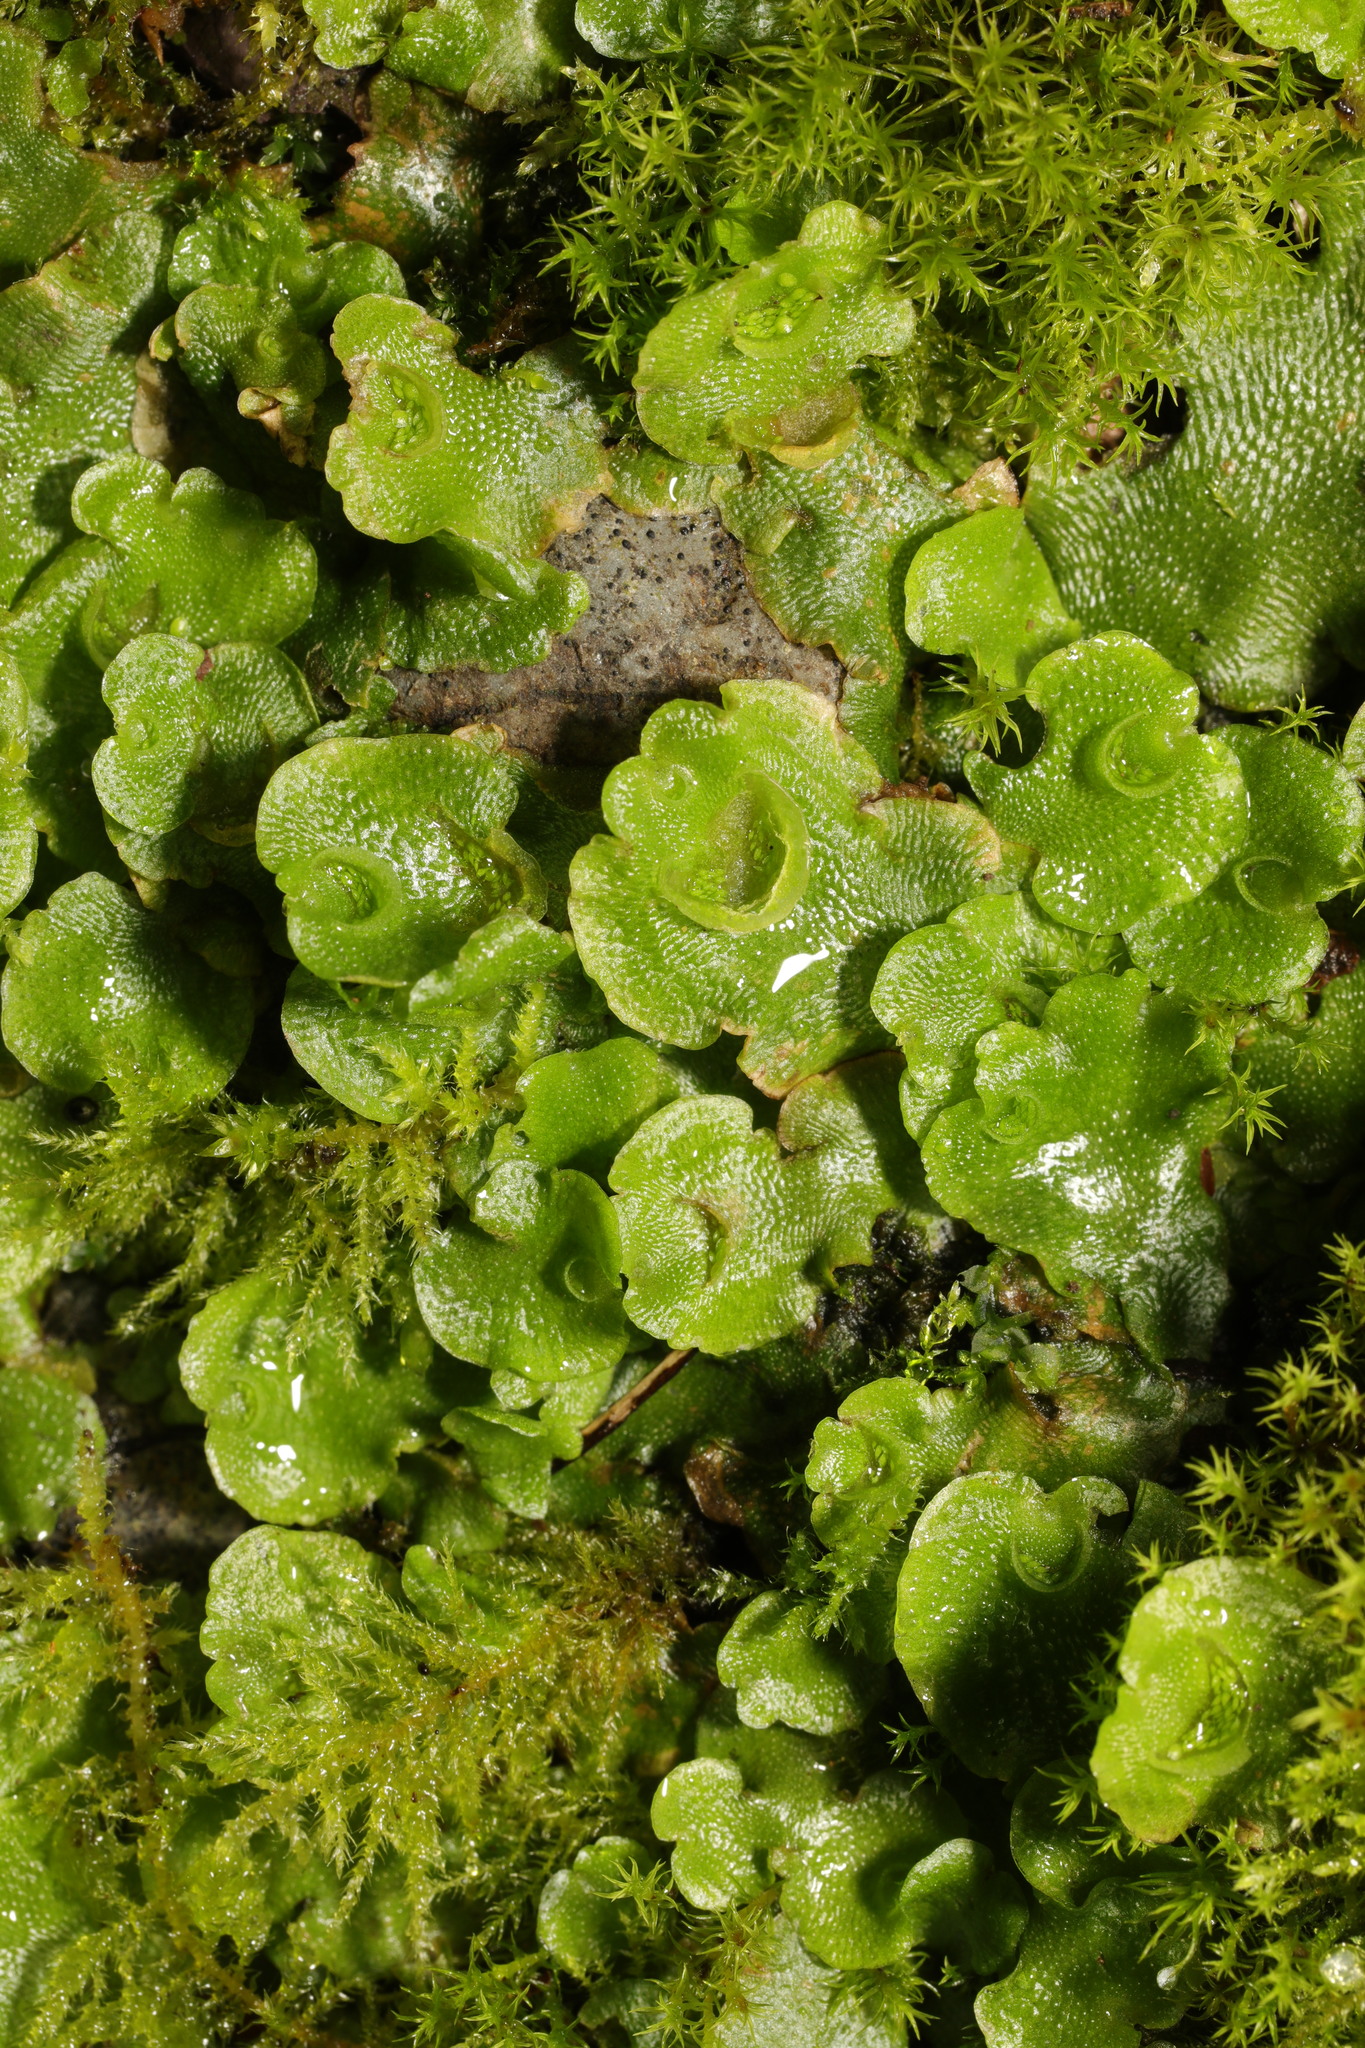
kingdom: Plantae
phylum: Marchantiophyta
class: Marchantiopsida
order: Lunulariales
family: Lunulariaceae
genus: Lunularia
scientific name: Lunularia cruciata
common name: Crescent-cup liverwort
